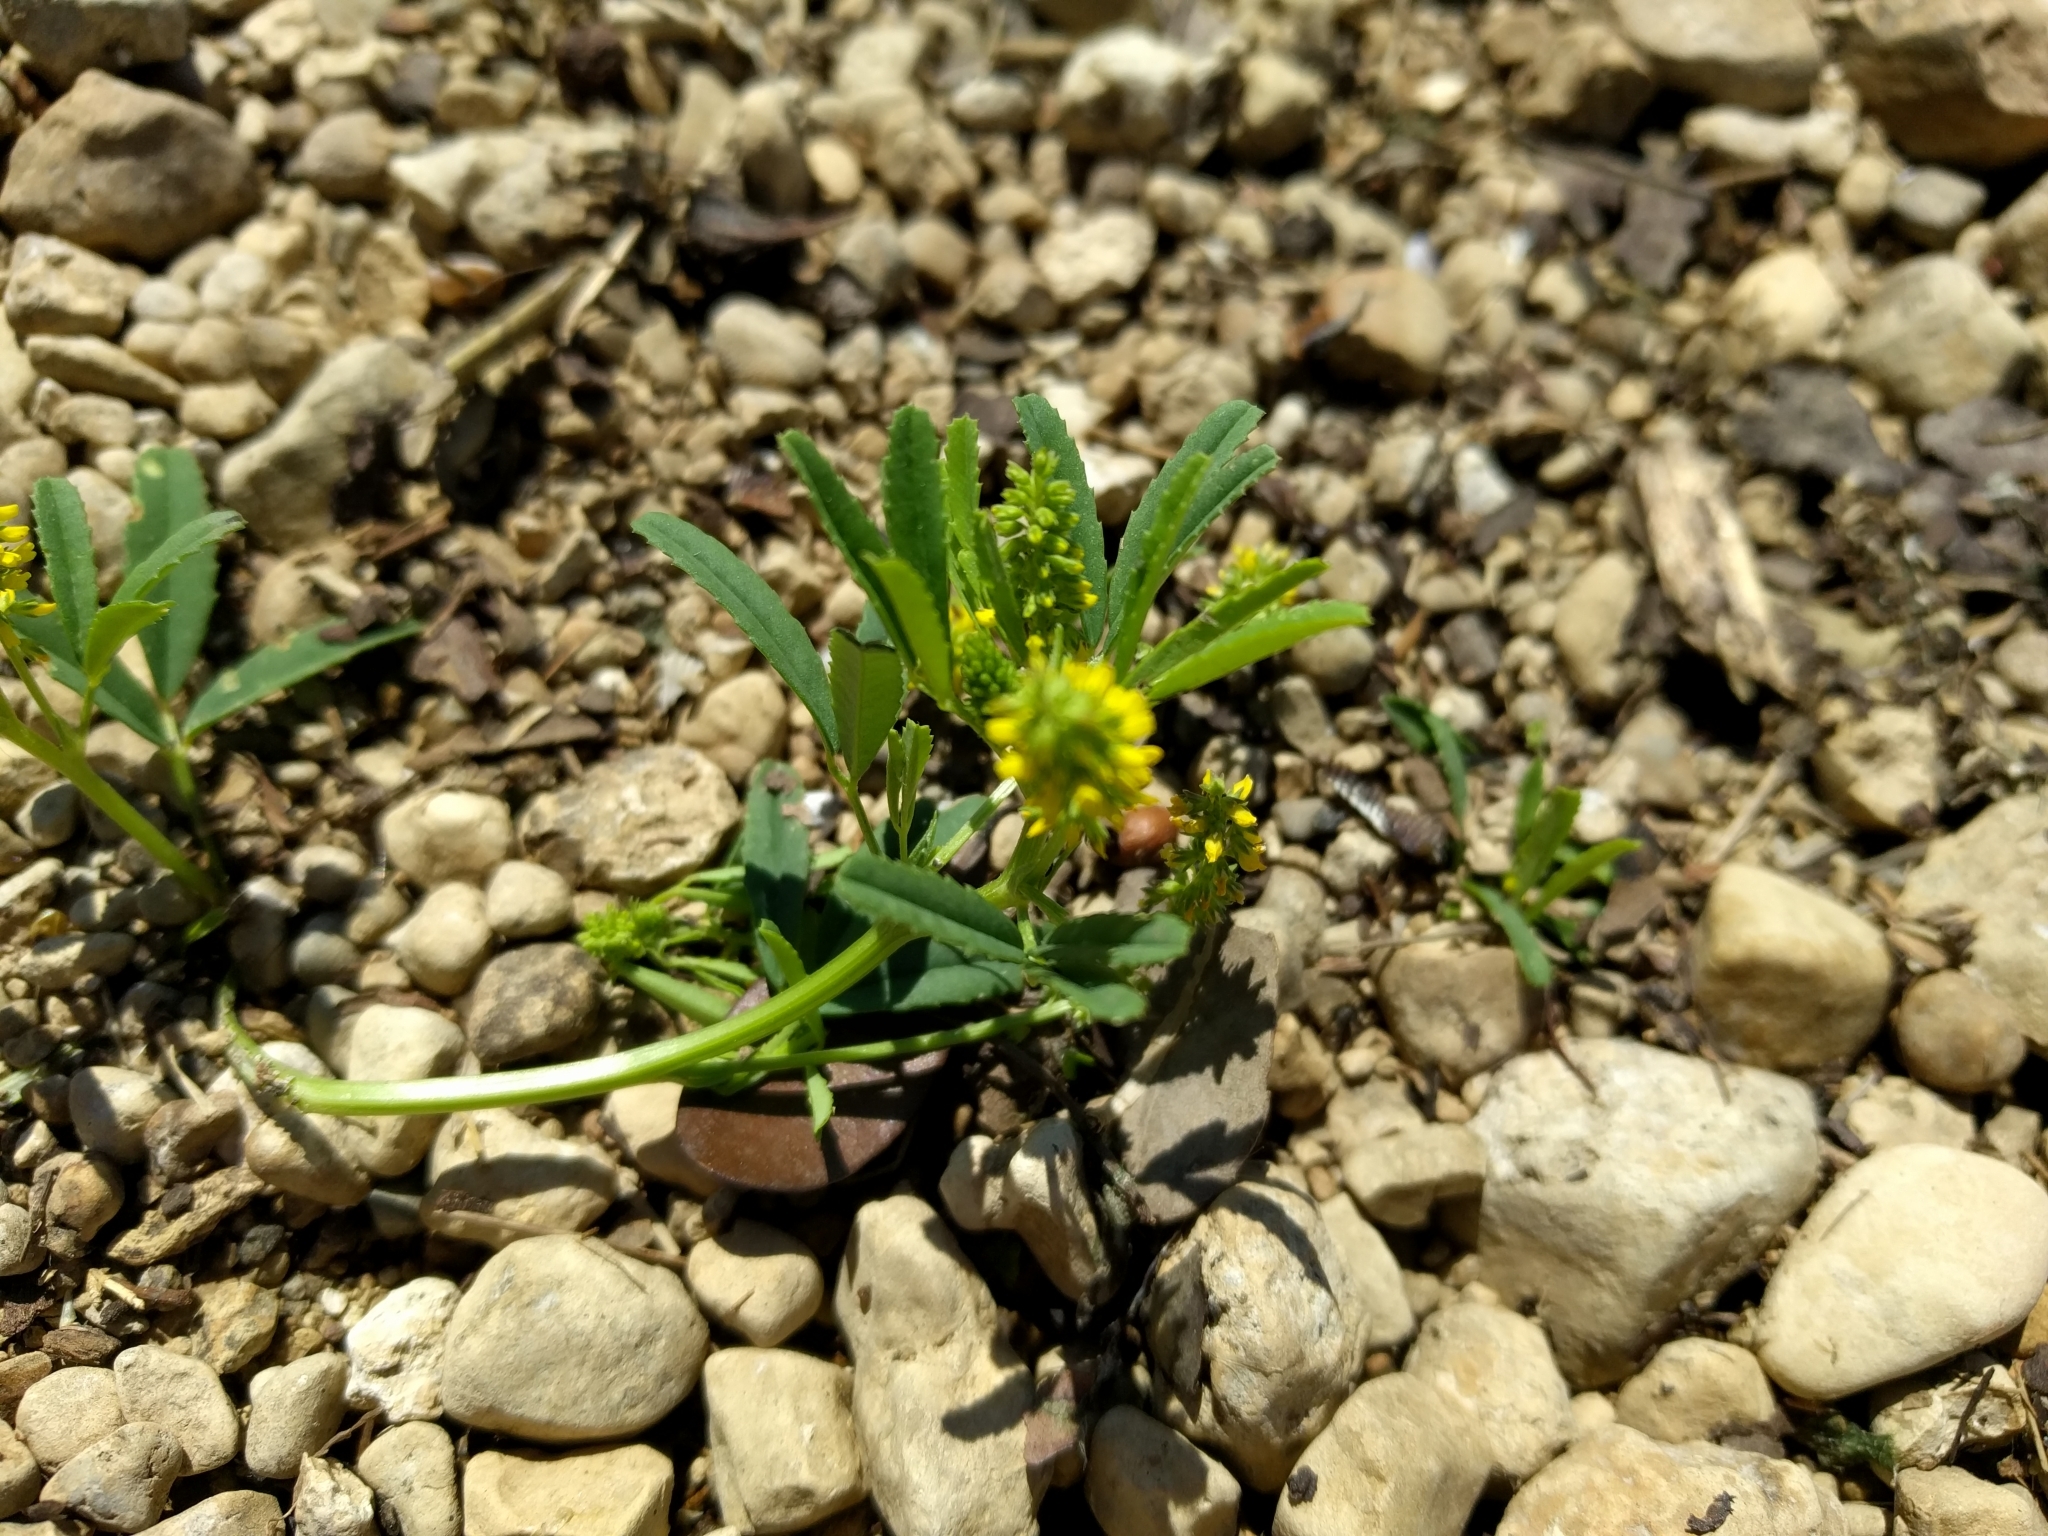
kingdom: Plantae
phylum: Tracheophyta
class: Magnoliopsida
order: Fabales
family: Fabaceae
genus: Melilotus
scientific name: Melilotus indicus
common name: Small melilot
